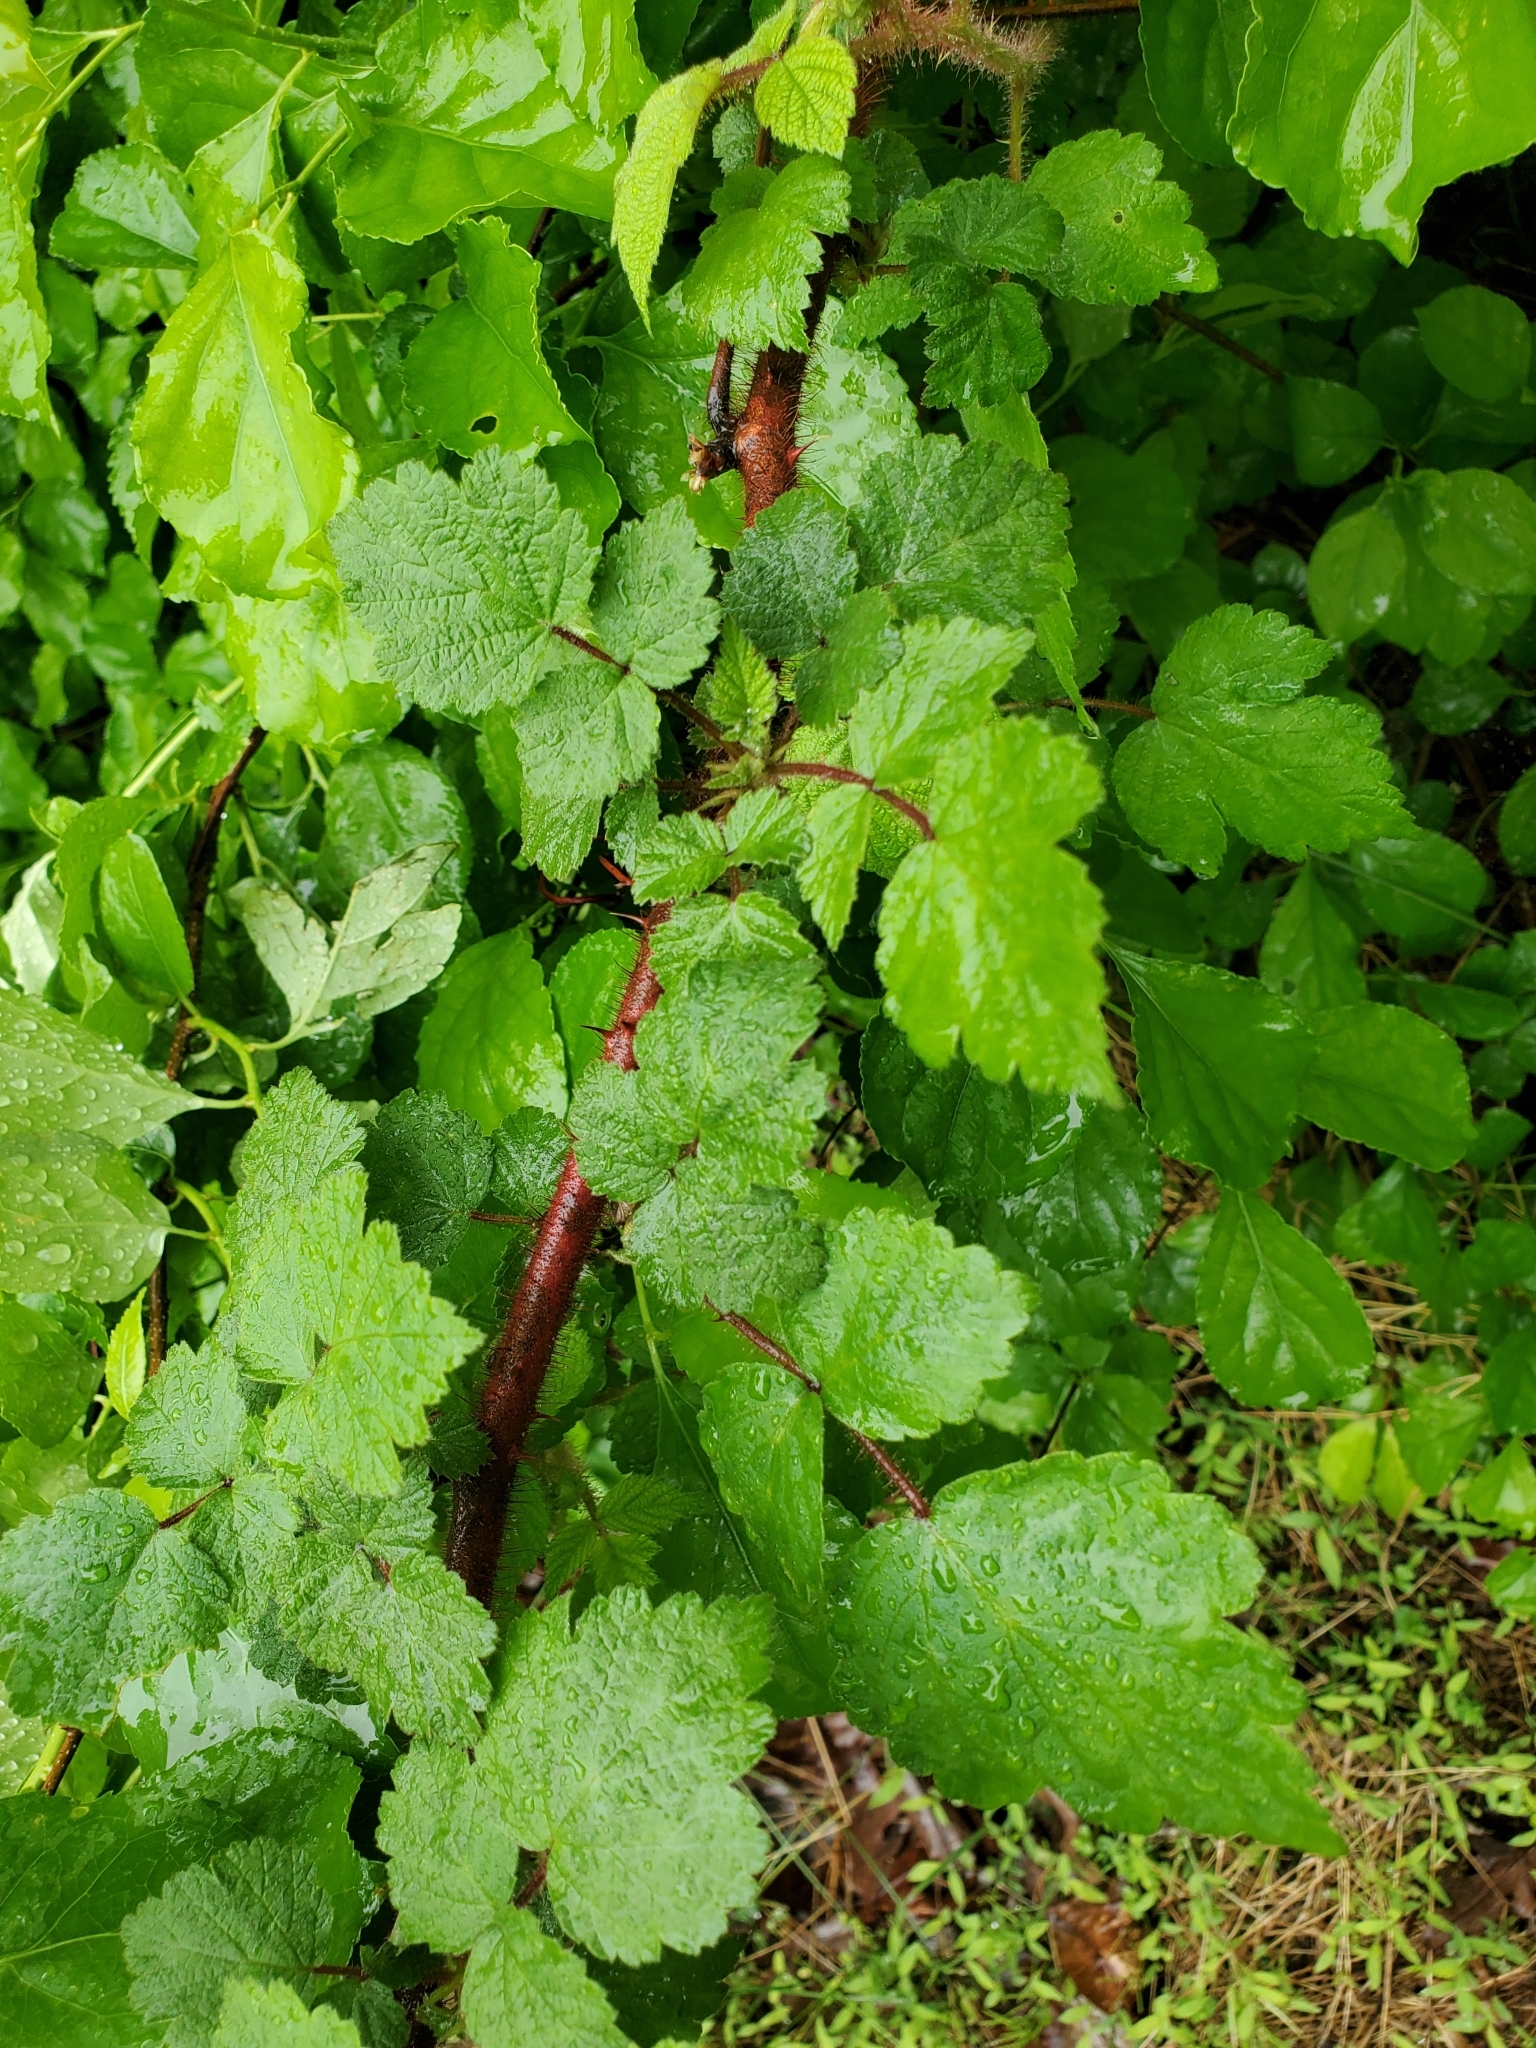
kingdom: Plantae
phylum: Tracheophyta
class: Magnoliopsida
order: Rosales
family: Rosaceae
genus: Rubus
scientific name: Rubus phoenicolasius
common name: Japanese wineberry
